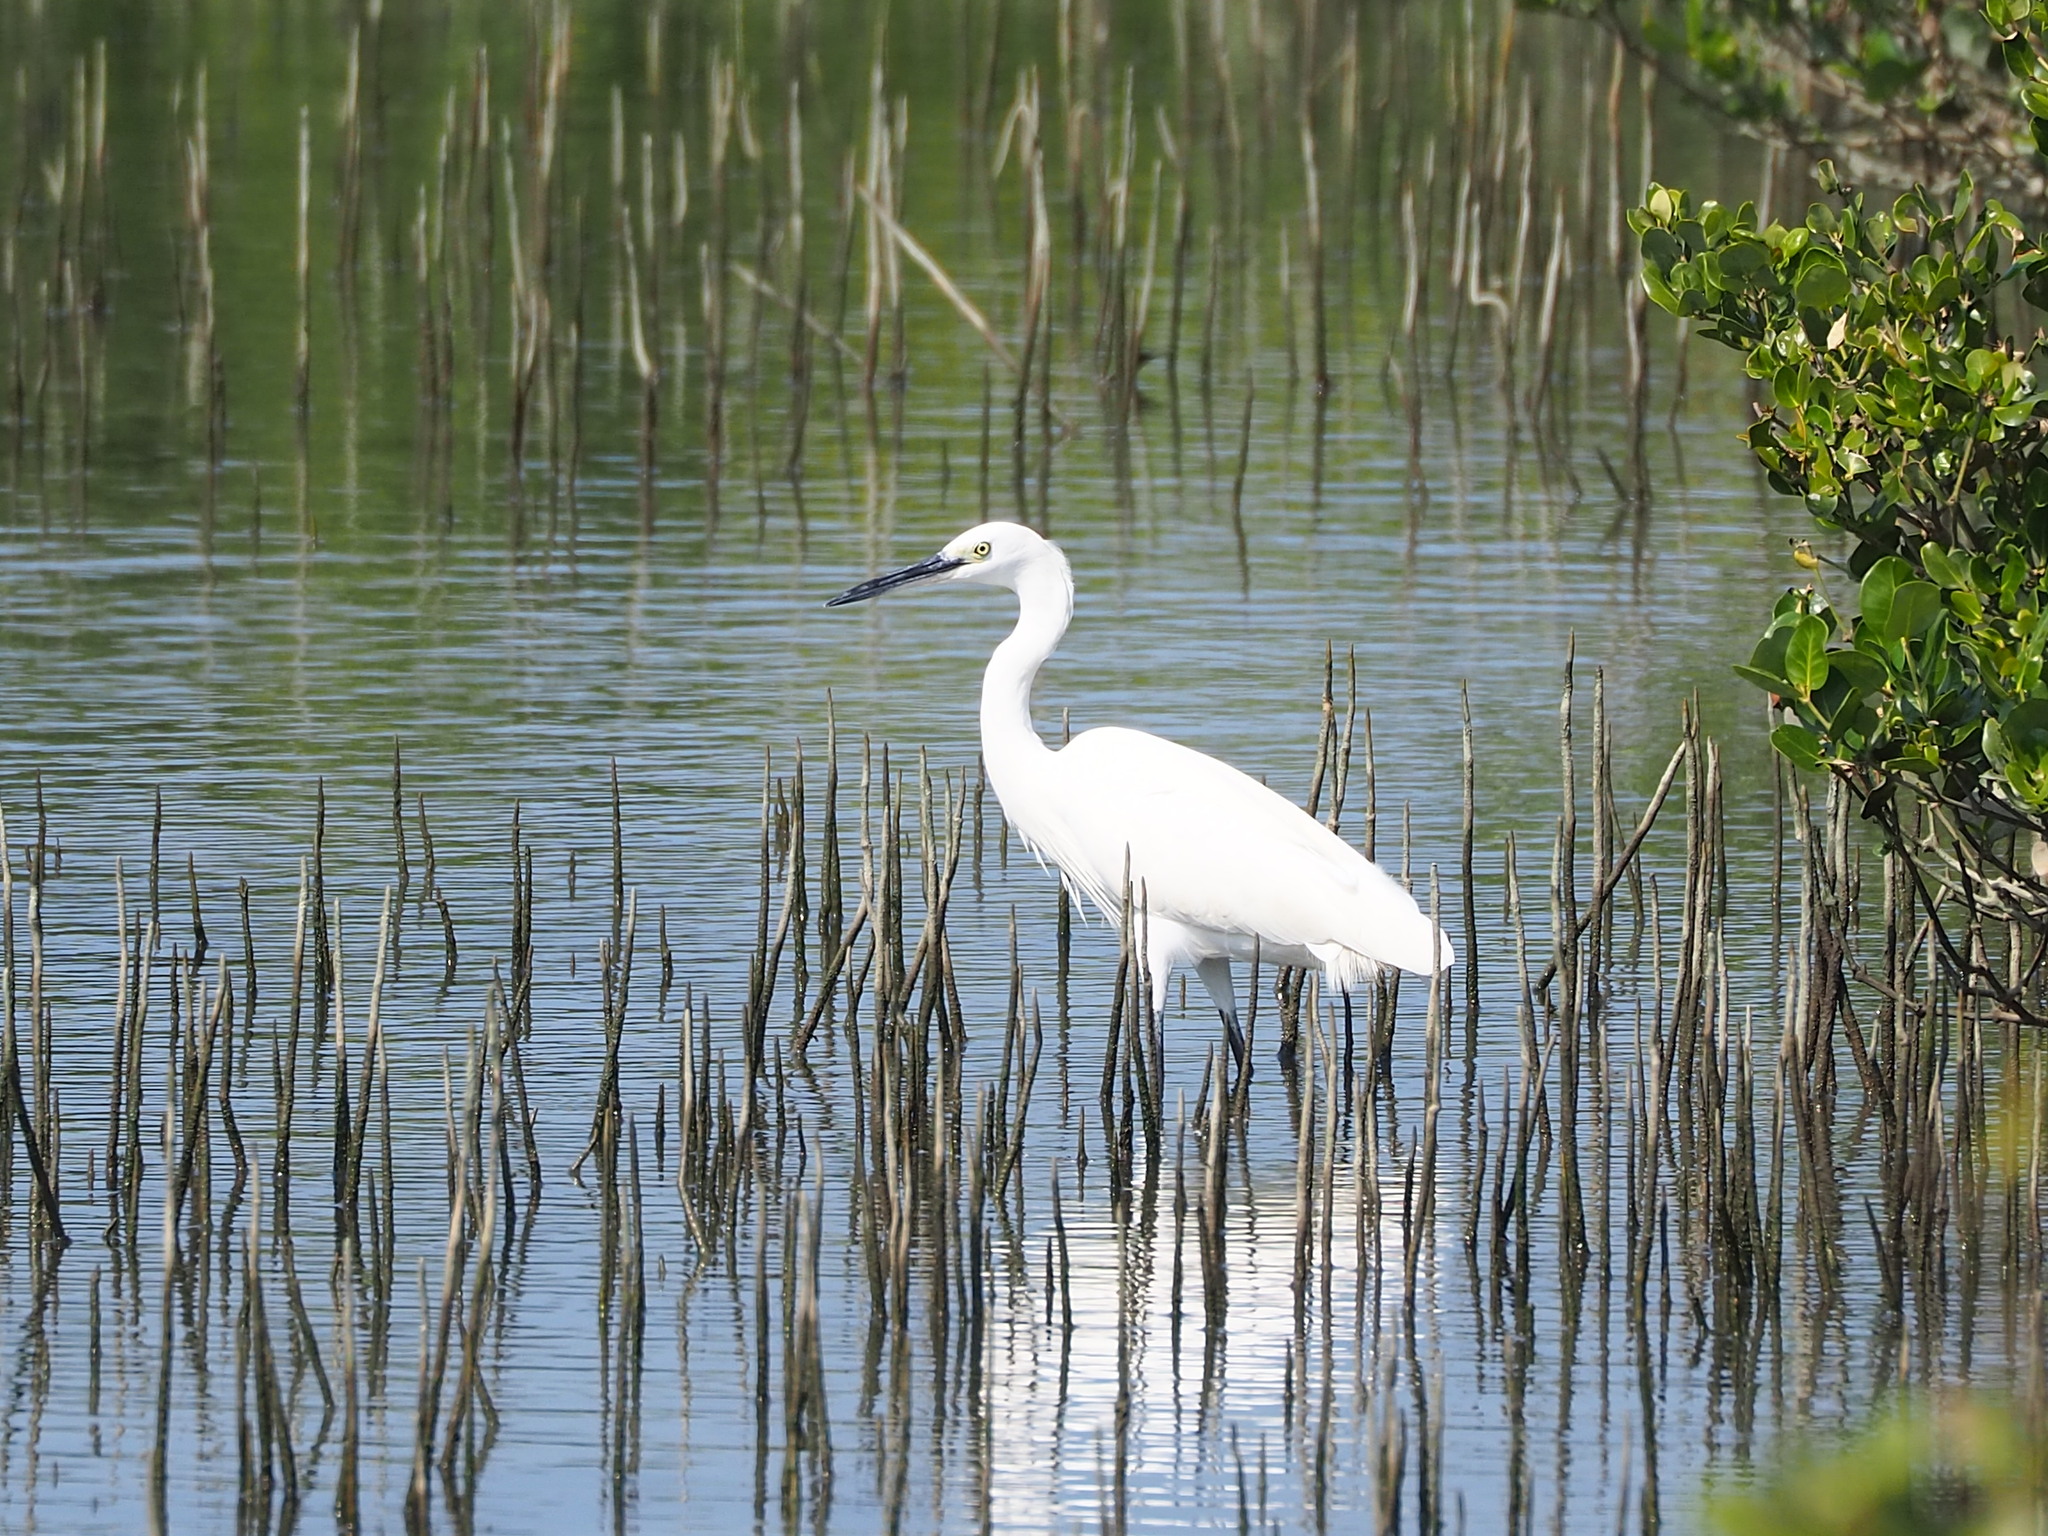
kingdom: Animalia
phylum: Chordata
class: Aves
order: Pelecaniformes
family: Ardeidae
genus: Egretta
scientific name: Egretta garzetta
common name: Little egret
